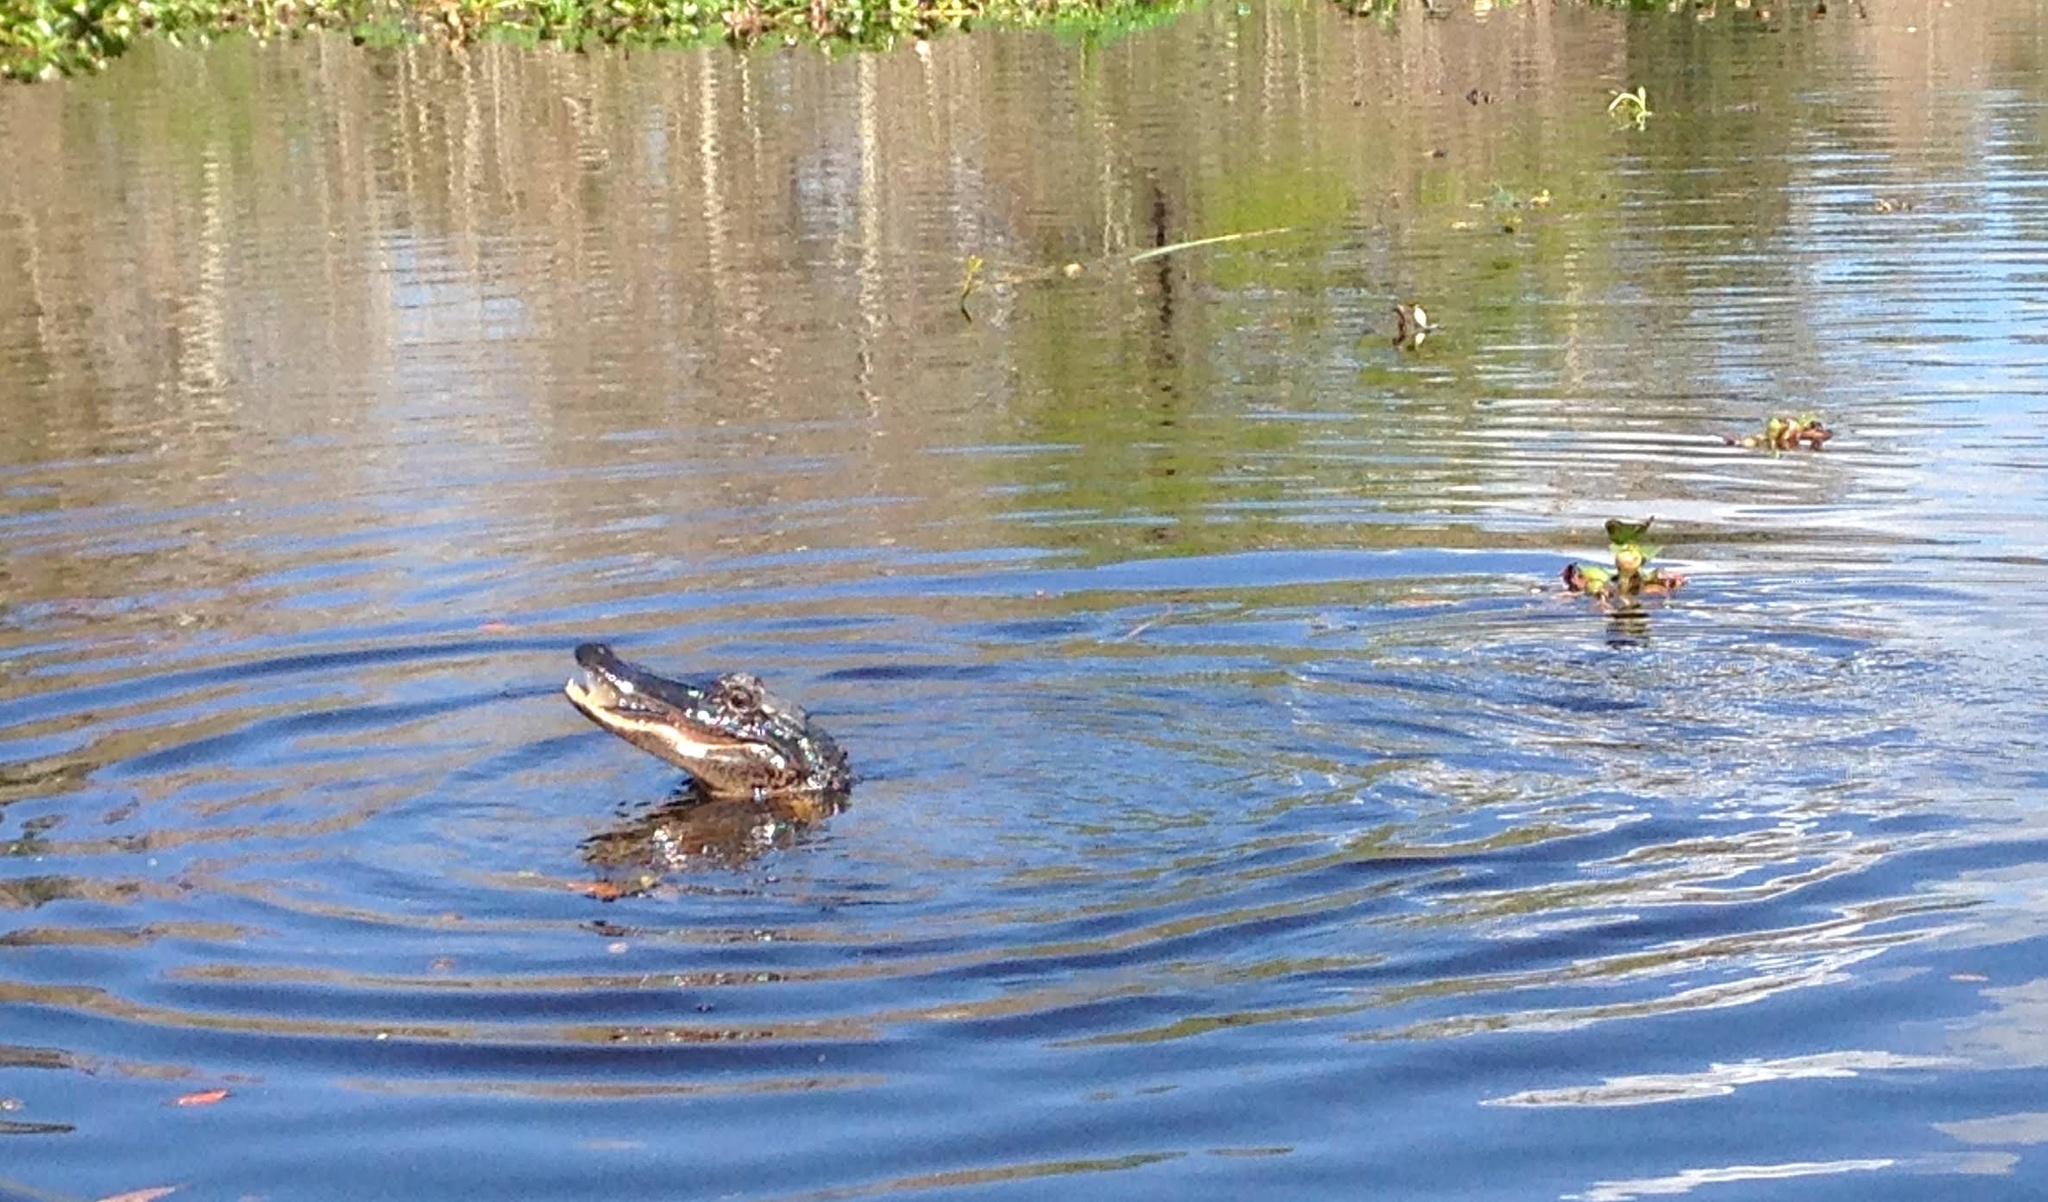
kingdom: Animalia
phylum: Chordata
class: Crocodylia
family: Alligatoridae
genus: Alligator
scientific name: Alligator mississippiensis
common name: American alligator
